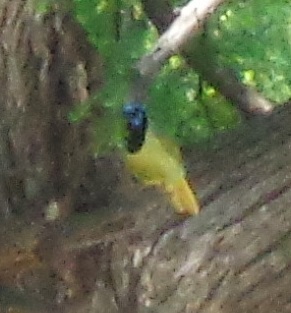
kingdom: Animalia
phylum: Chordata
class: Aves
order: Passeriformes
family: Corvidae
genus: Cyanocorax
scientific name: Cyanocorax yncas
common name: Green jay
